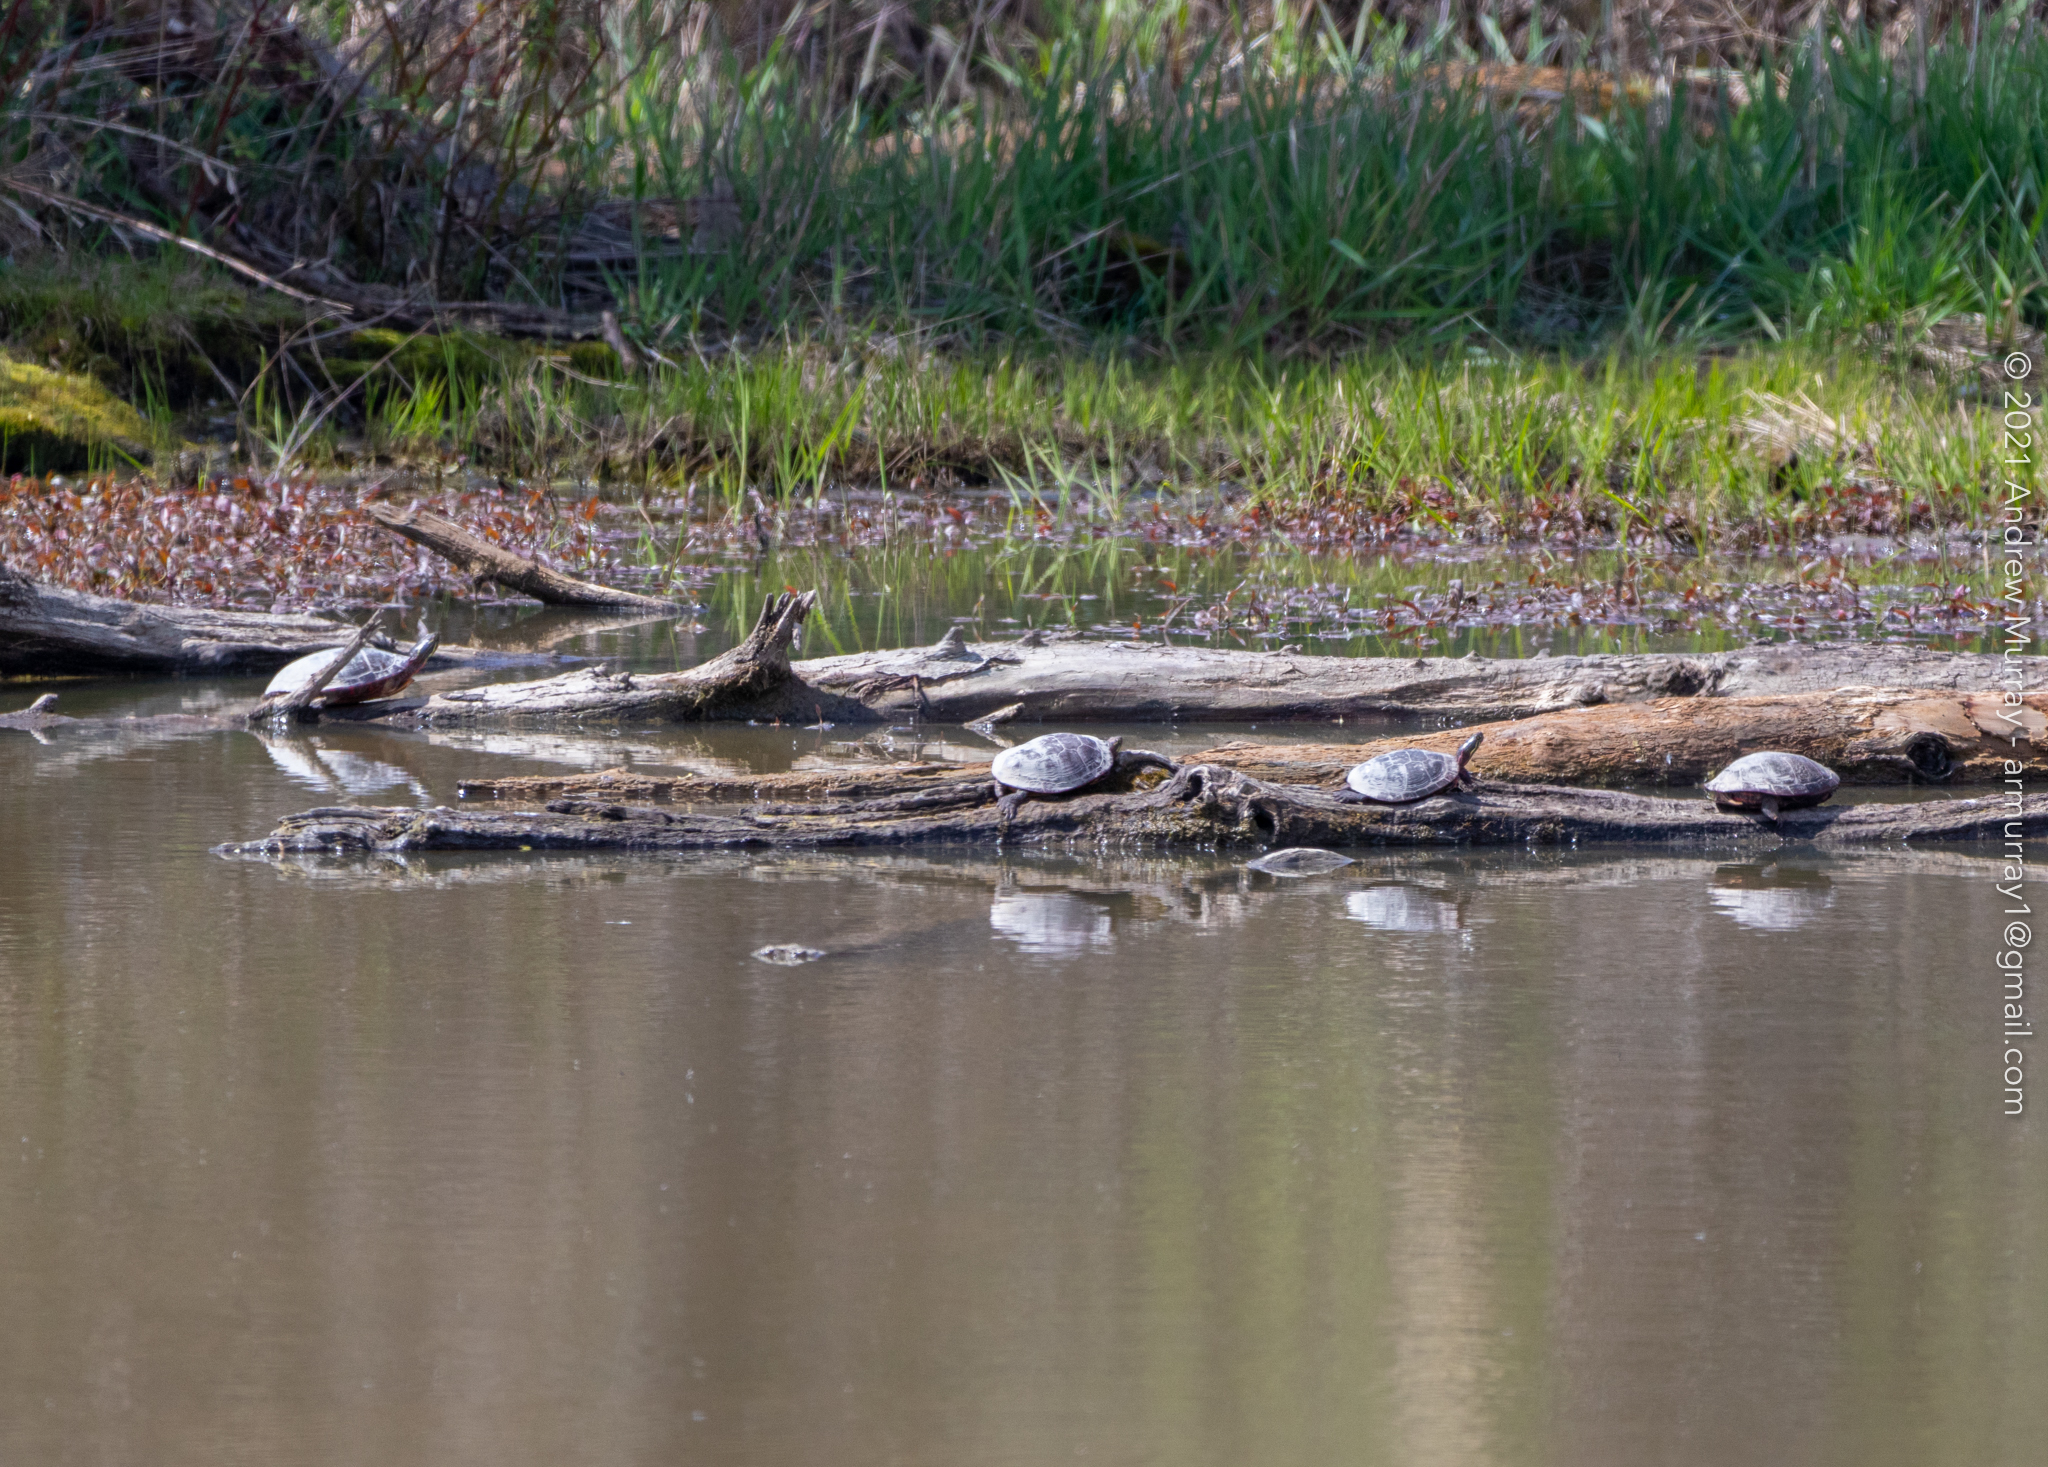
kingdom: Animalia
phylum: Chordata
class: Testudines
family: Emydidae
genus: Chrysemys
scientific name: Chrysemys picta
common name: Painted turtle
